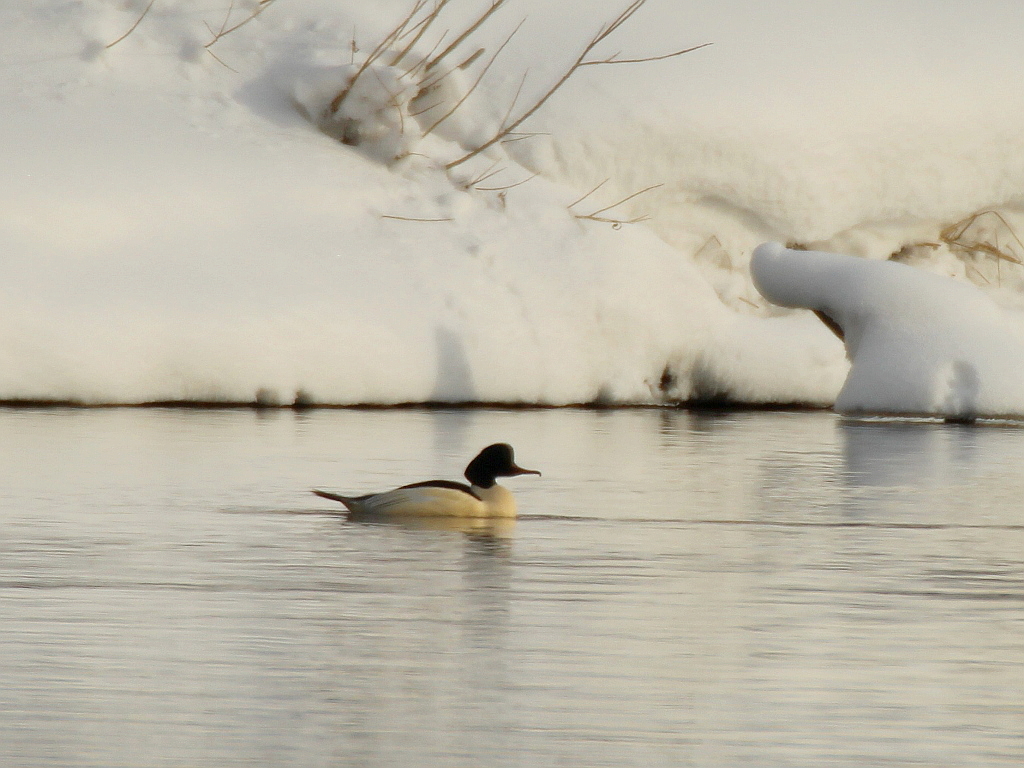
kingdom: Animalia
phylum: Chordata
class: Aves
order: Anseriformes
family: Anatidae
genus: Mergus
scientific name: Mergus merganser
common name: Common merganser
